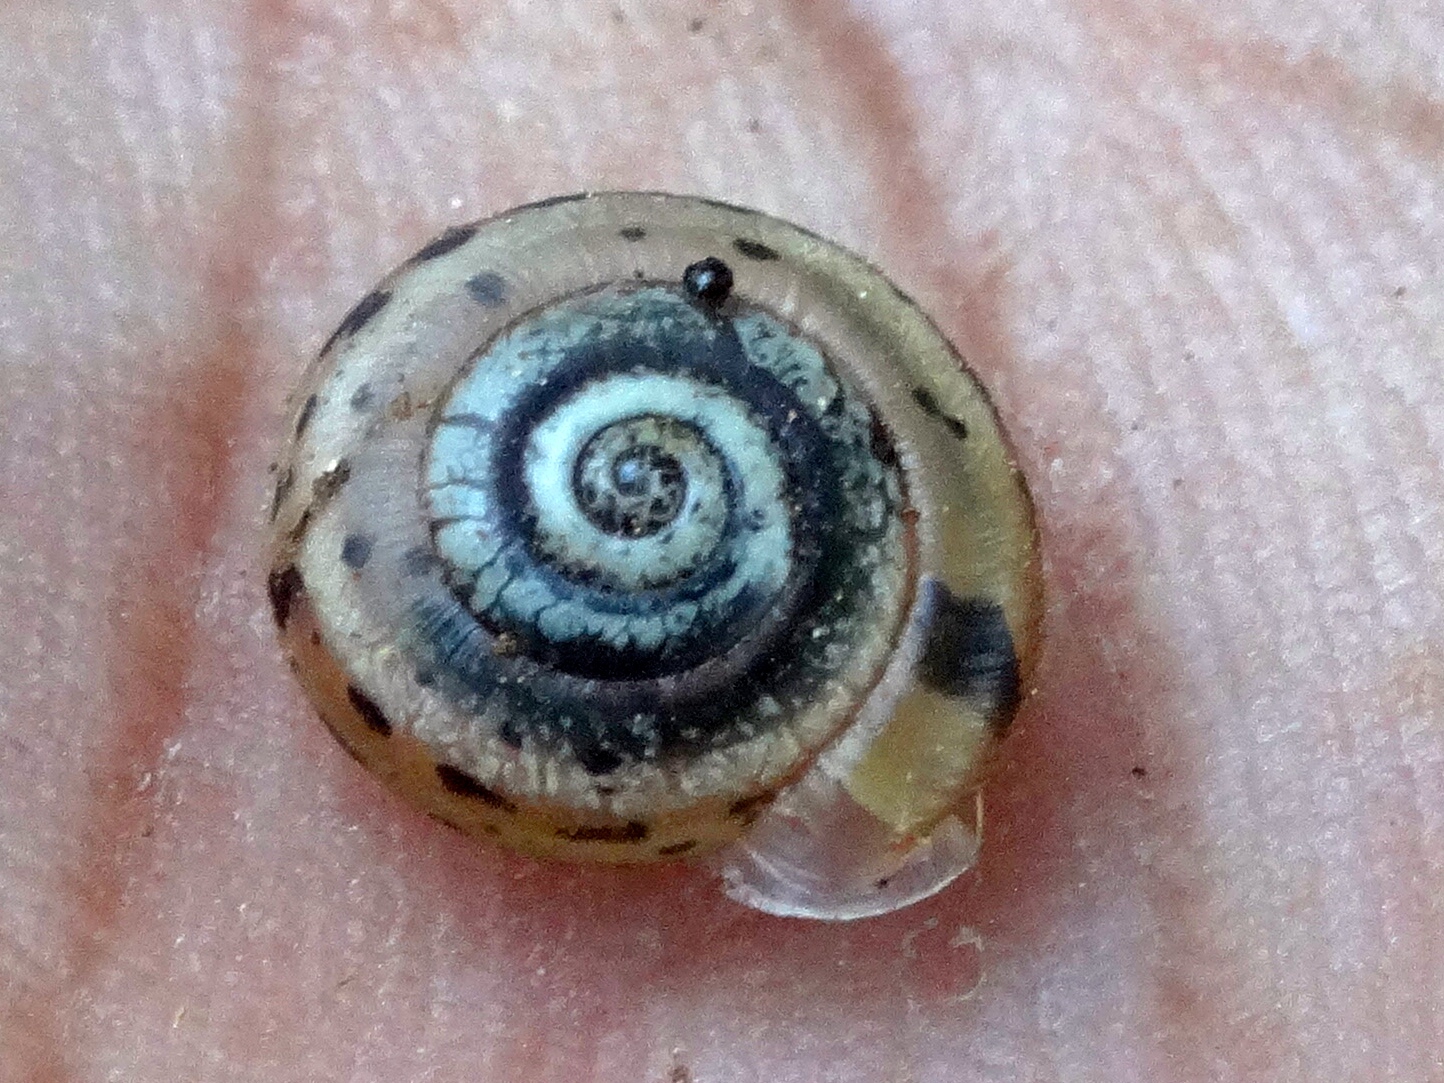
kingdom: Animalia
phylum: Mollusca
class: Gastropoda
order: Stylommatophora
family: Polygyridae
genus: Linisa
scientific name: Linisa
